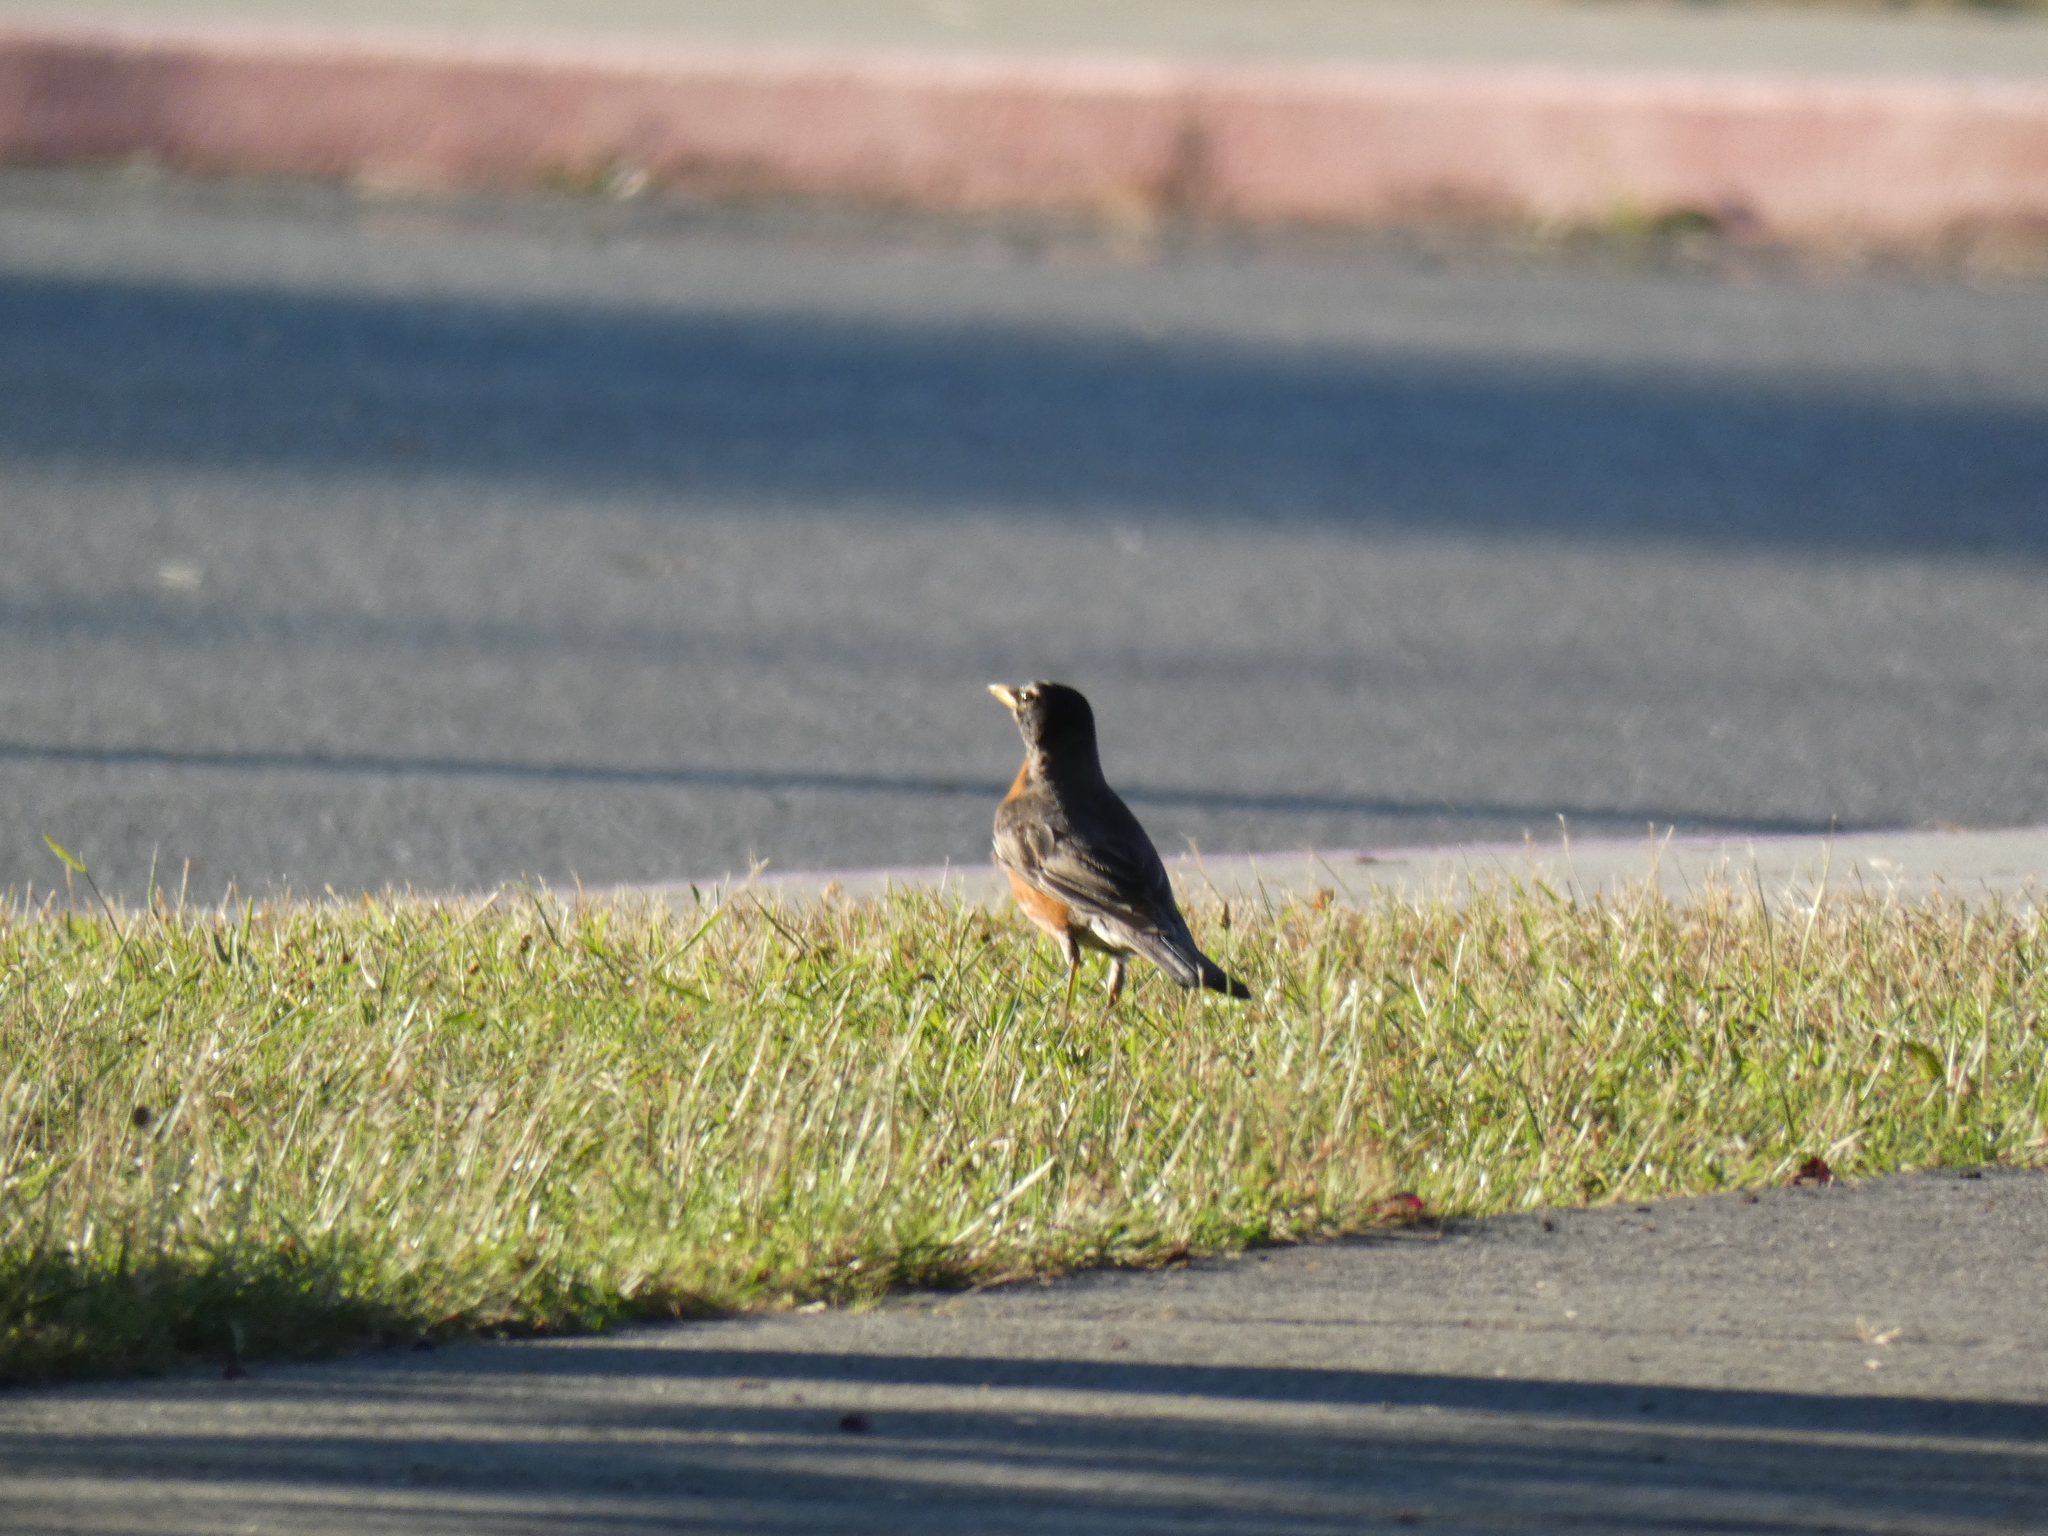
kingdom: Animalia
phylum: Chordata
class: Aves
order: Passeriformes
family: Turdidae
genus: Turdus
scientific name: Turdus migratorius
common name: American robin
